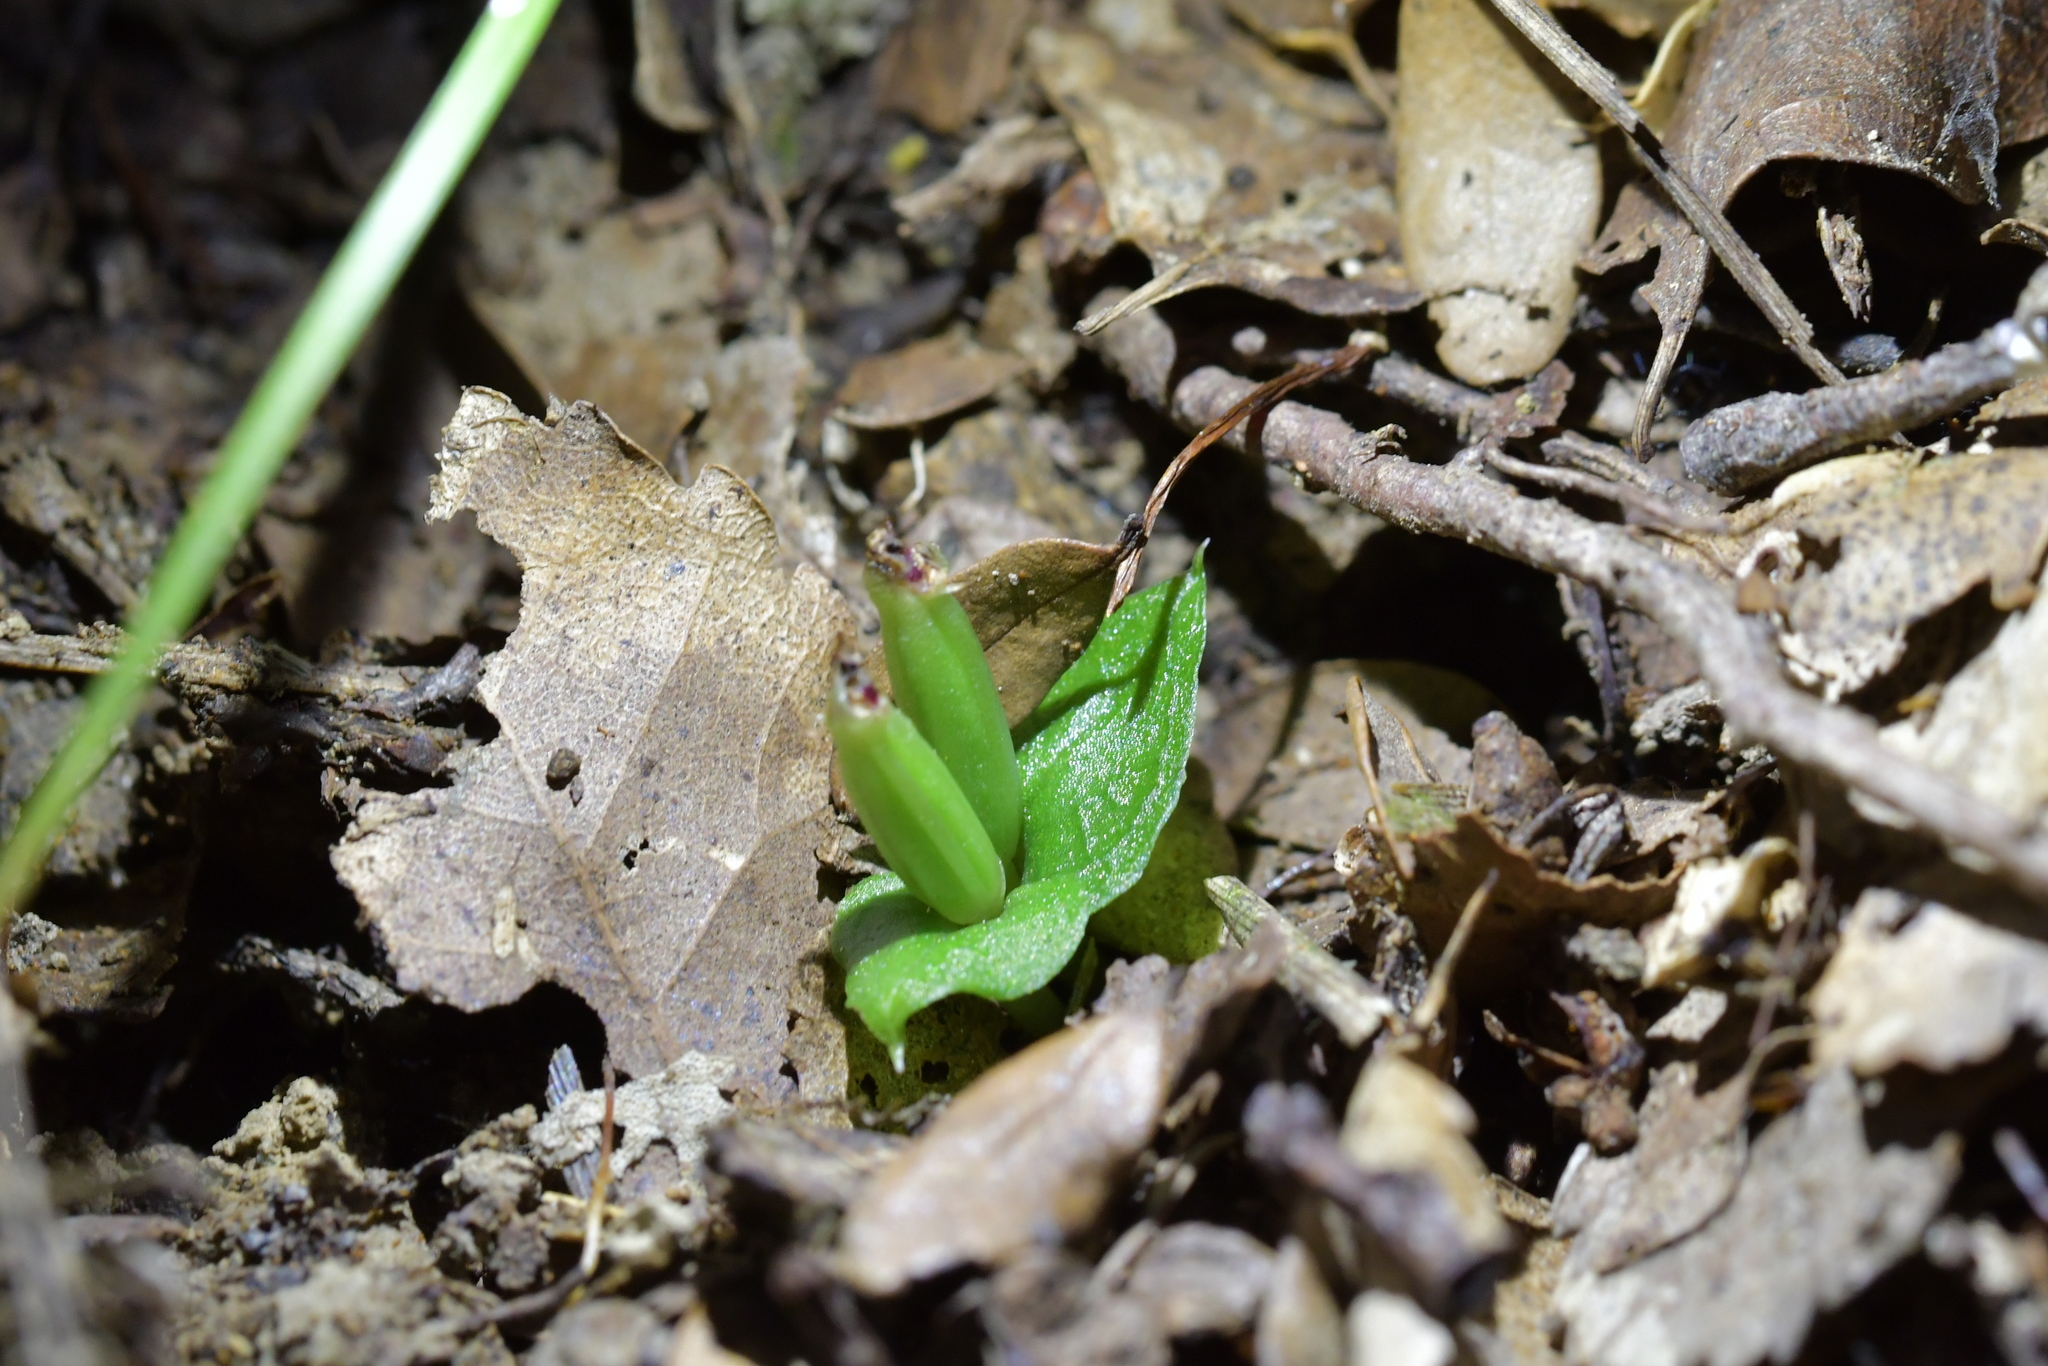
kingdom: Plantae
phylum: Tracheophyta
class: Liliopsida
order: Asparagales
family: Orchidaceae
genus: Corybas
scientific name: Corybas cheesemanii
